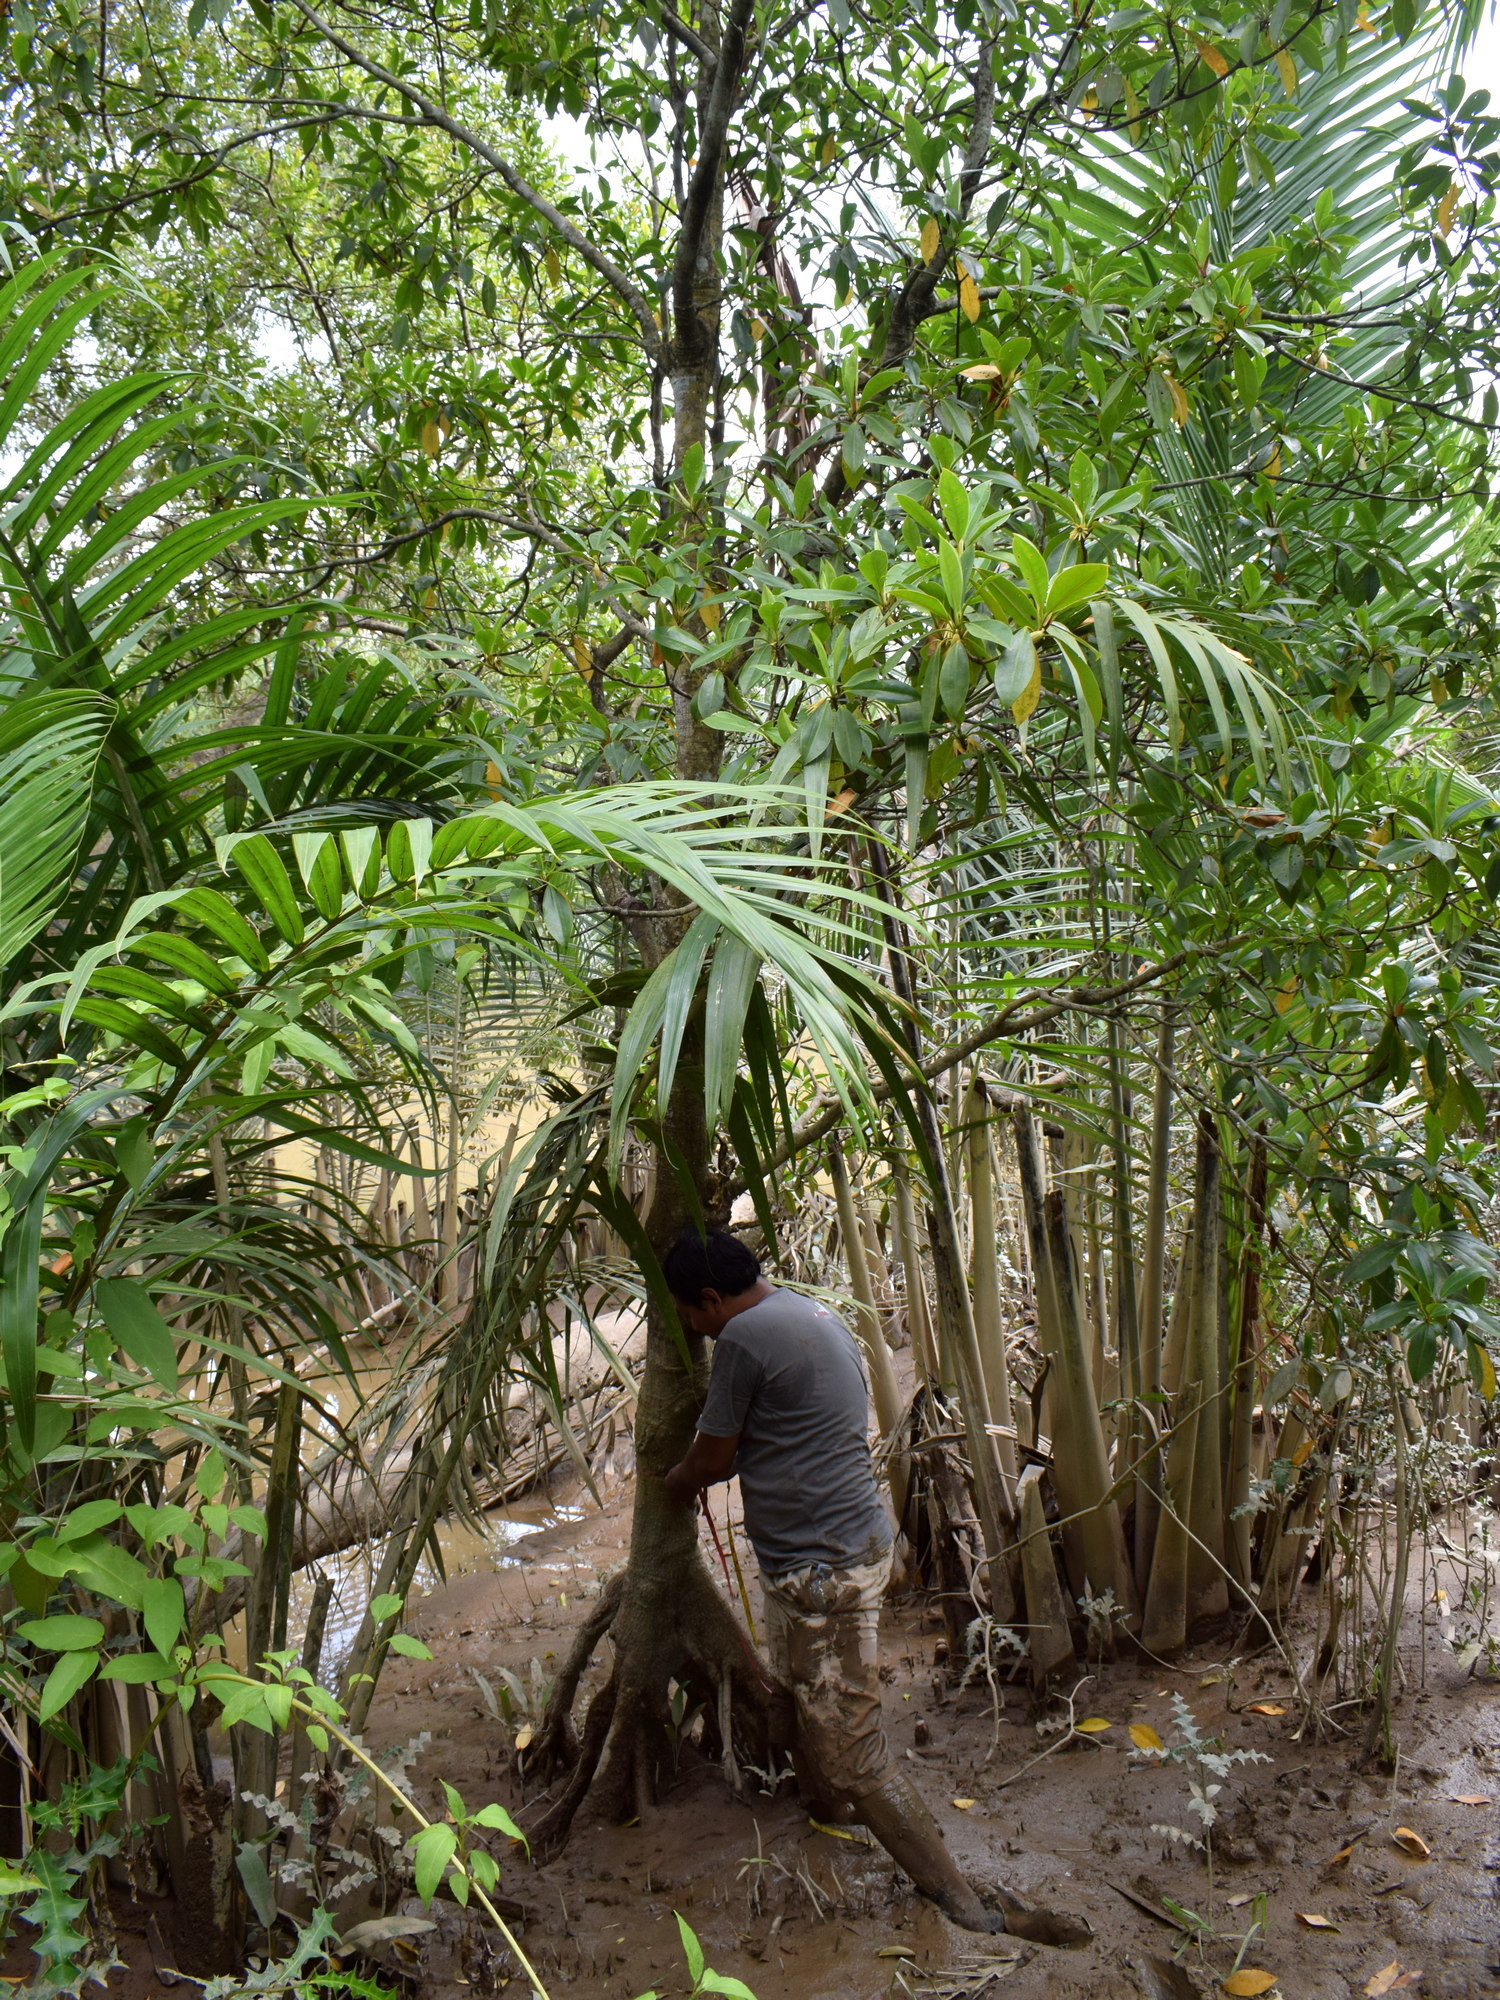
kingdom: Plantae
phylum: Tracheophyta
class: Magnoliopsida
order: Malpighiales
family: Rhizophoraceae
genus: Bruguiera
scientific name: Bruguiera sexangula
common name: Oriental mangrove
